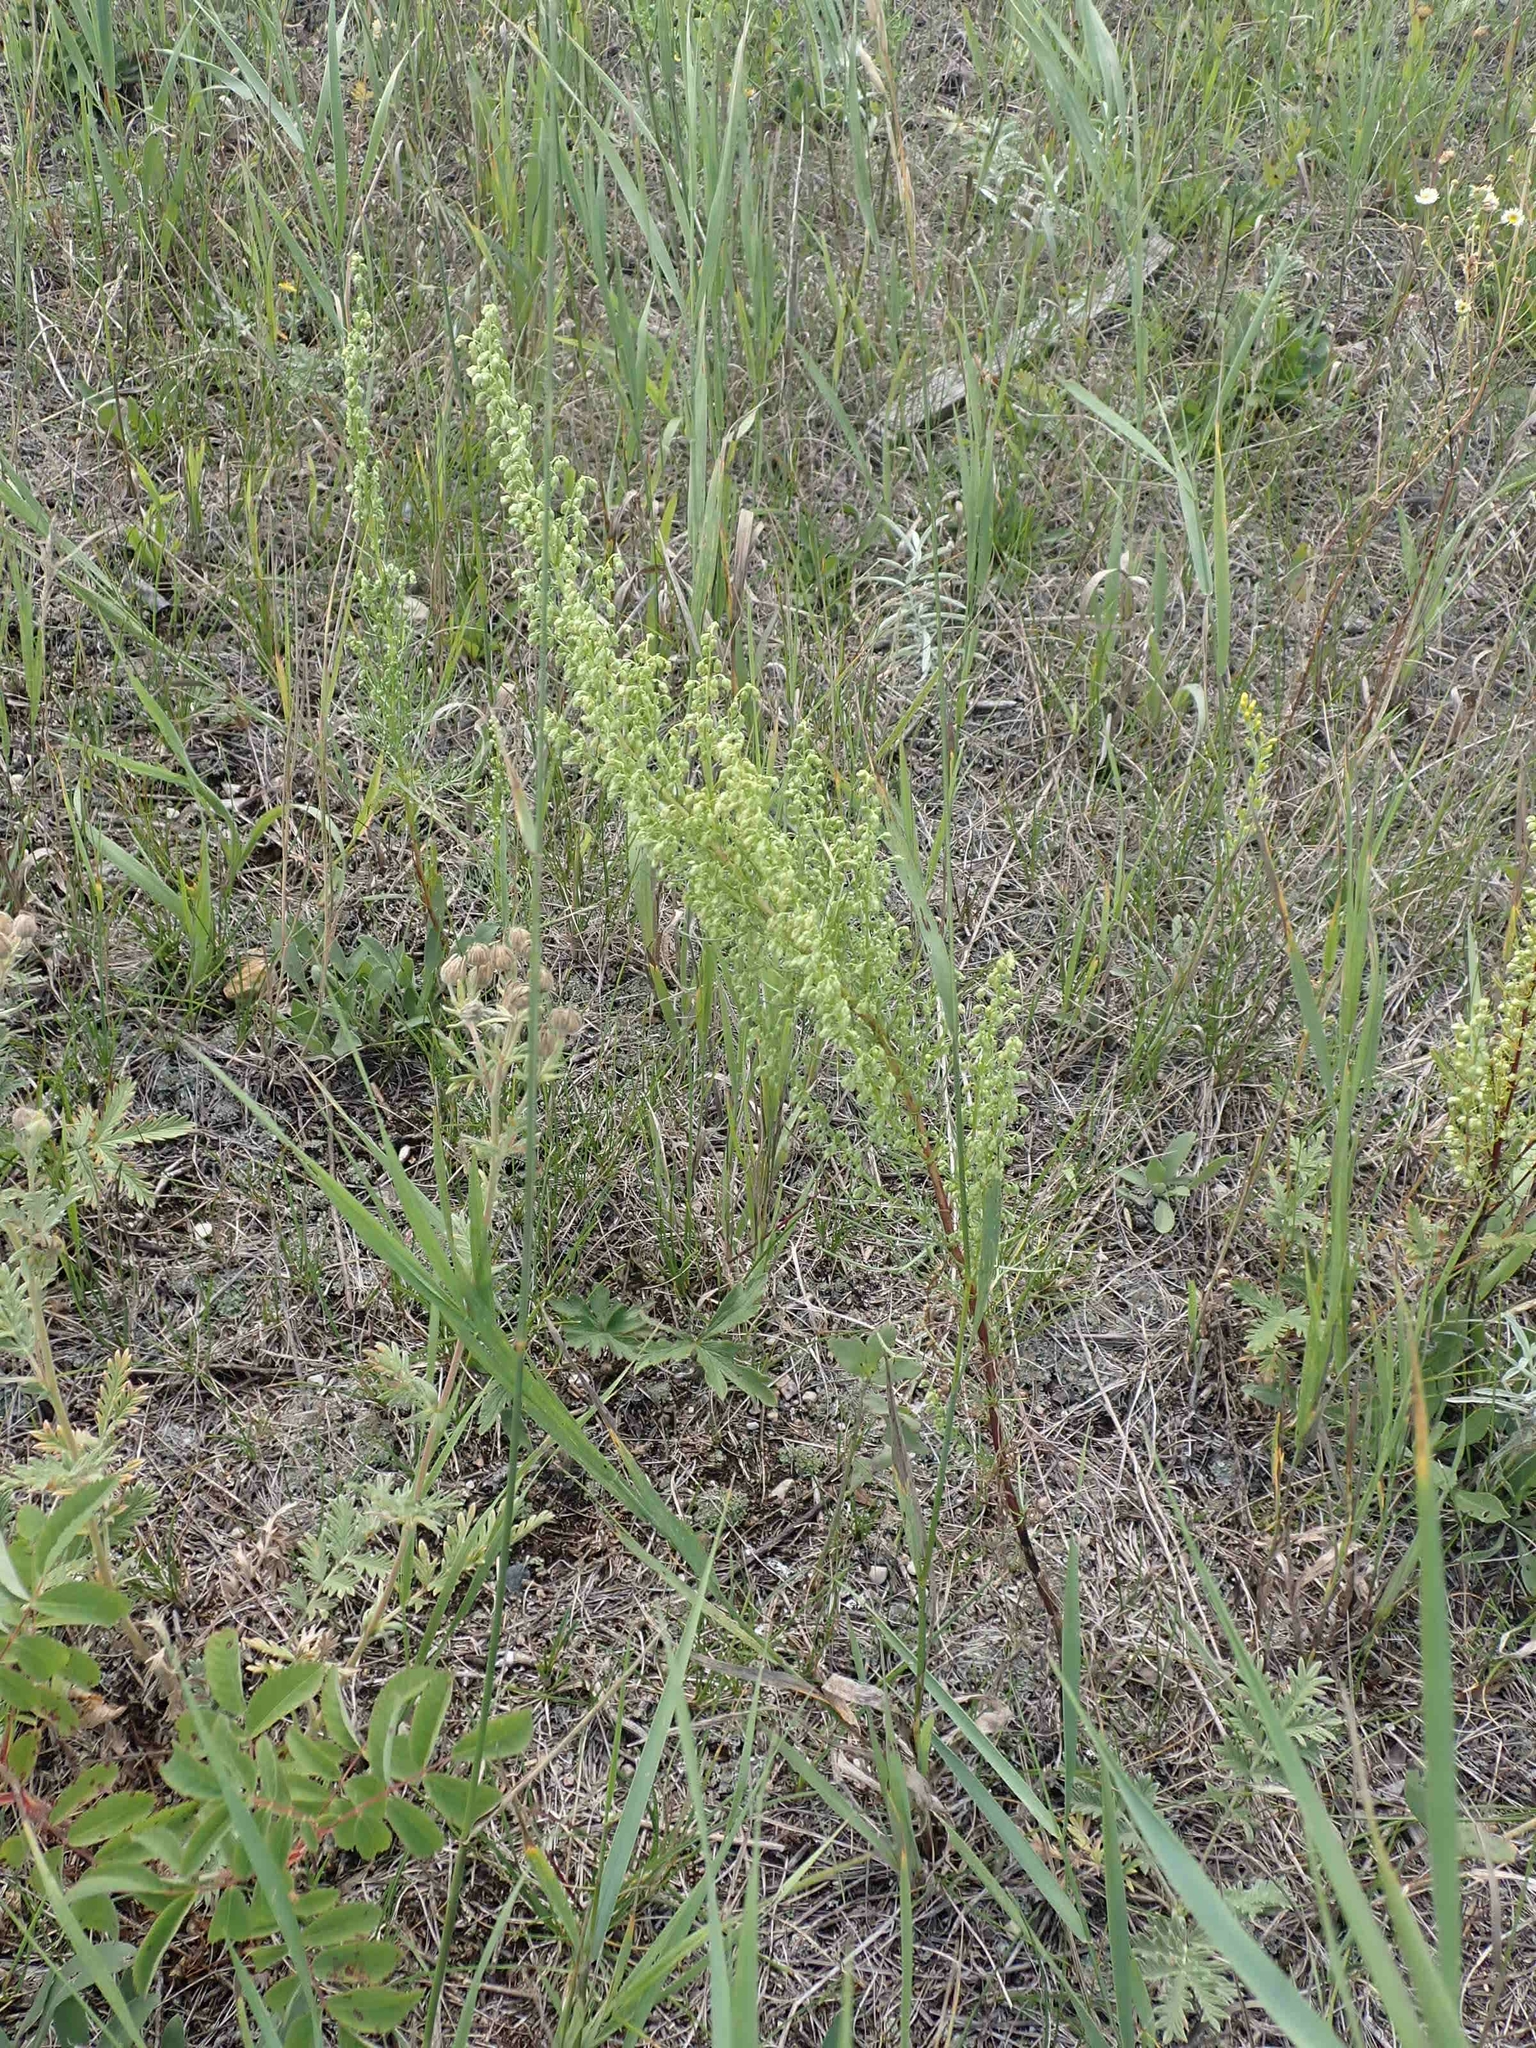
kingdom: Plantae
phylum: Tracheophyta
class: Magnoliopsida
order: Asterales
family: Asteraceae
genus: Artemisia
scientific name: Artemisia campestris
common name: Field wormwood
